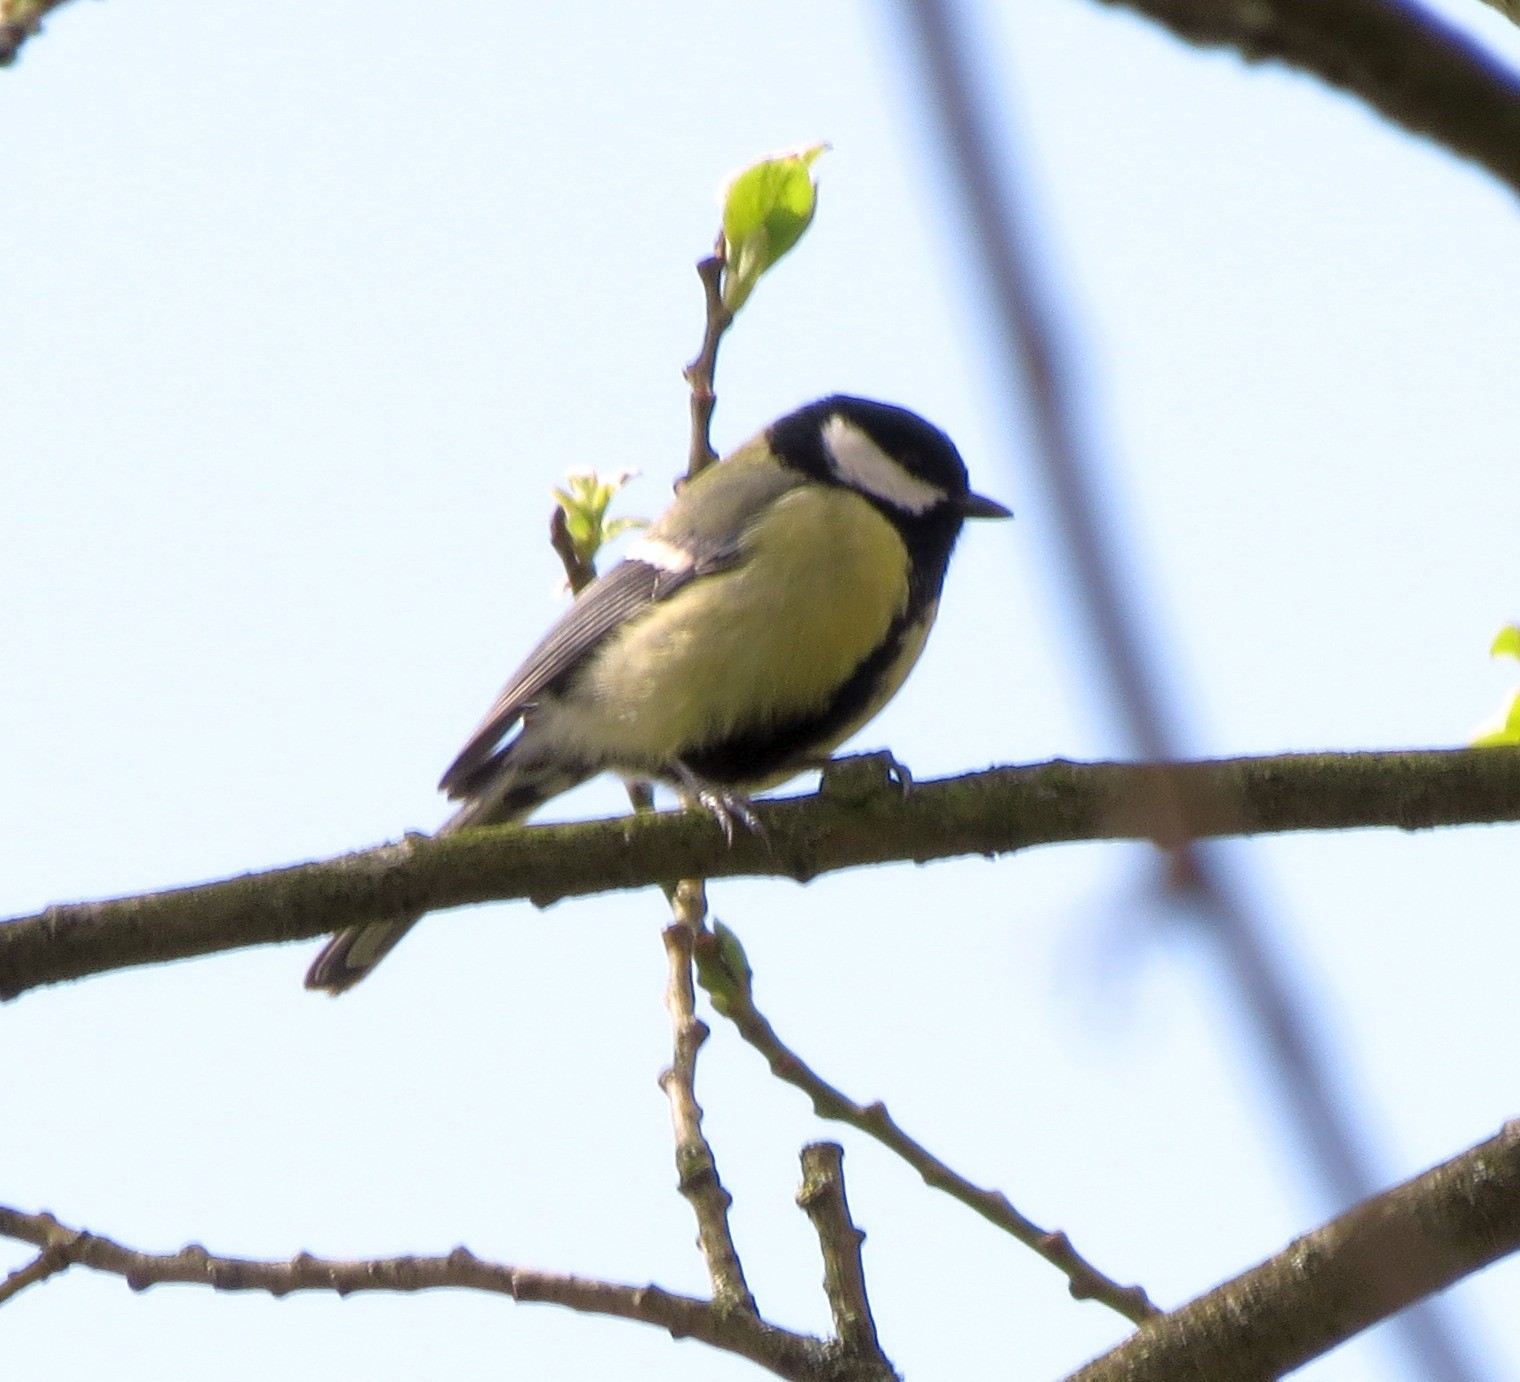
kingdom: Animalia
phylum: Chordata
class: Aves
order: Passeriformes
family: Paridae
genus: Parus
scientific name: Parus major
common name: Great tit
